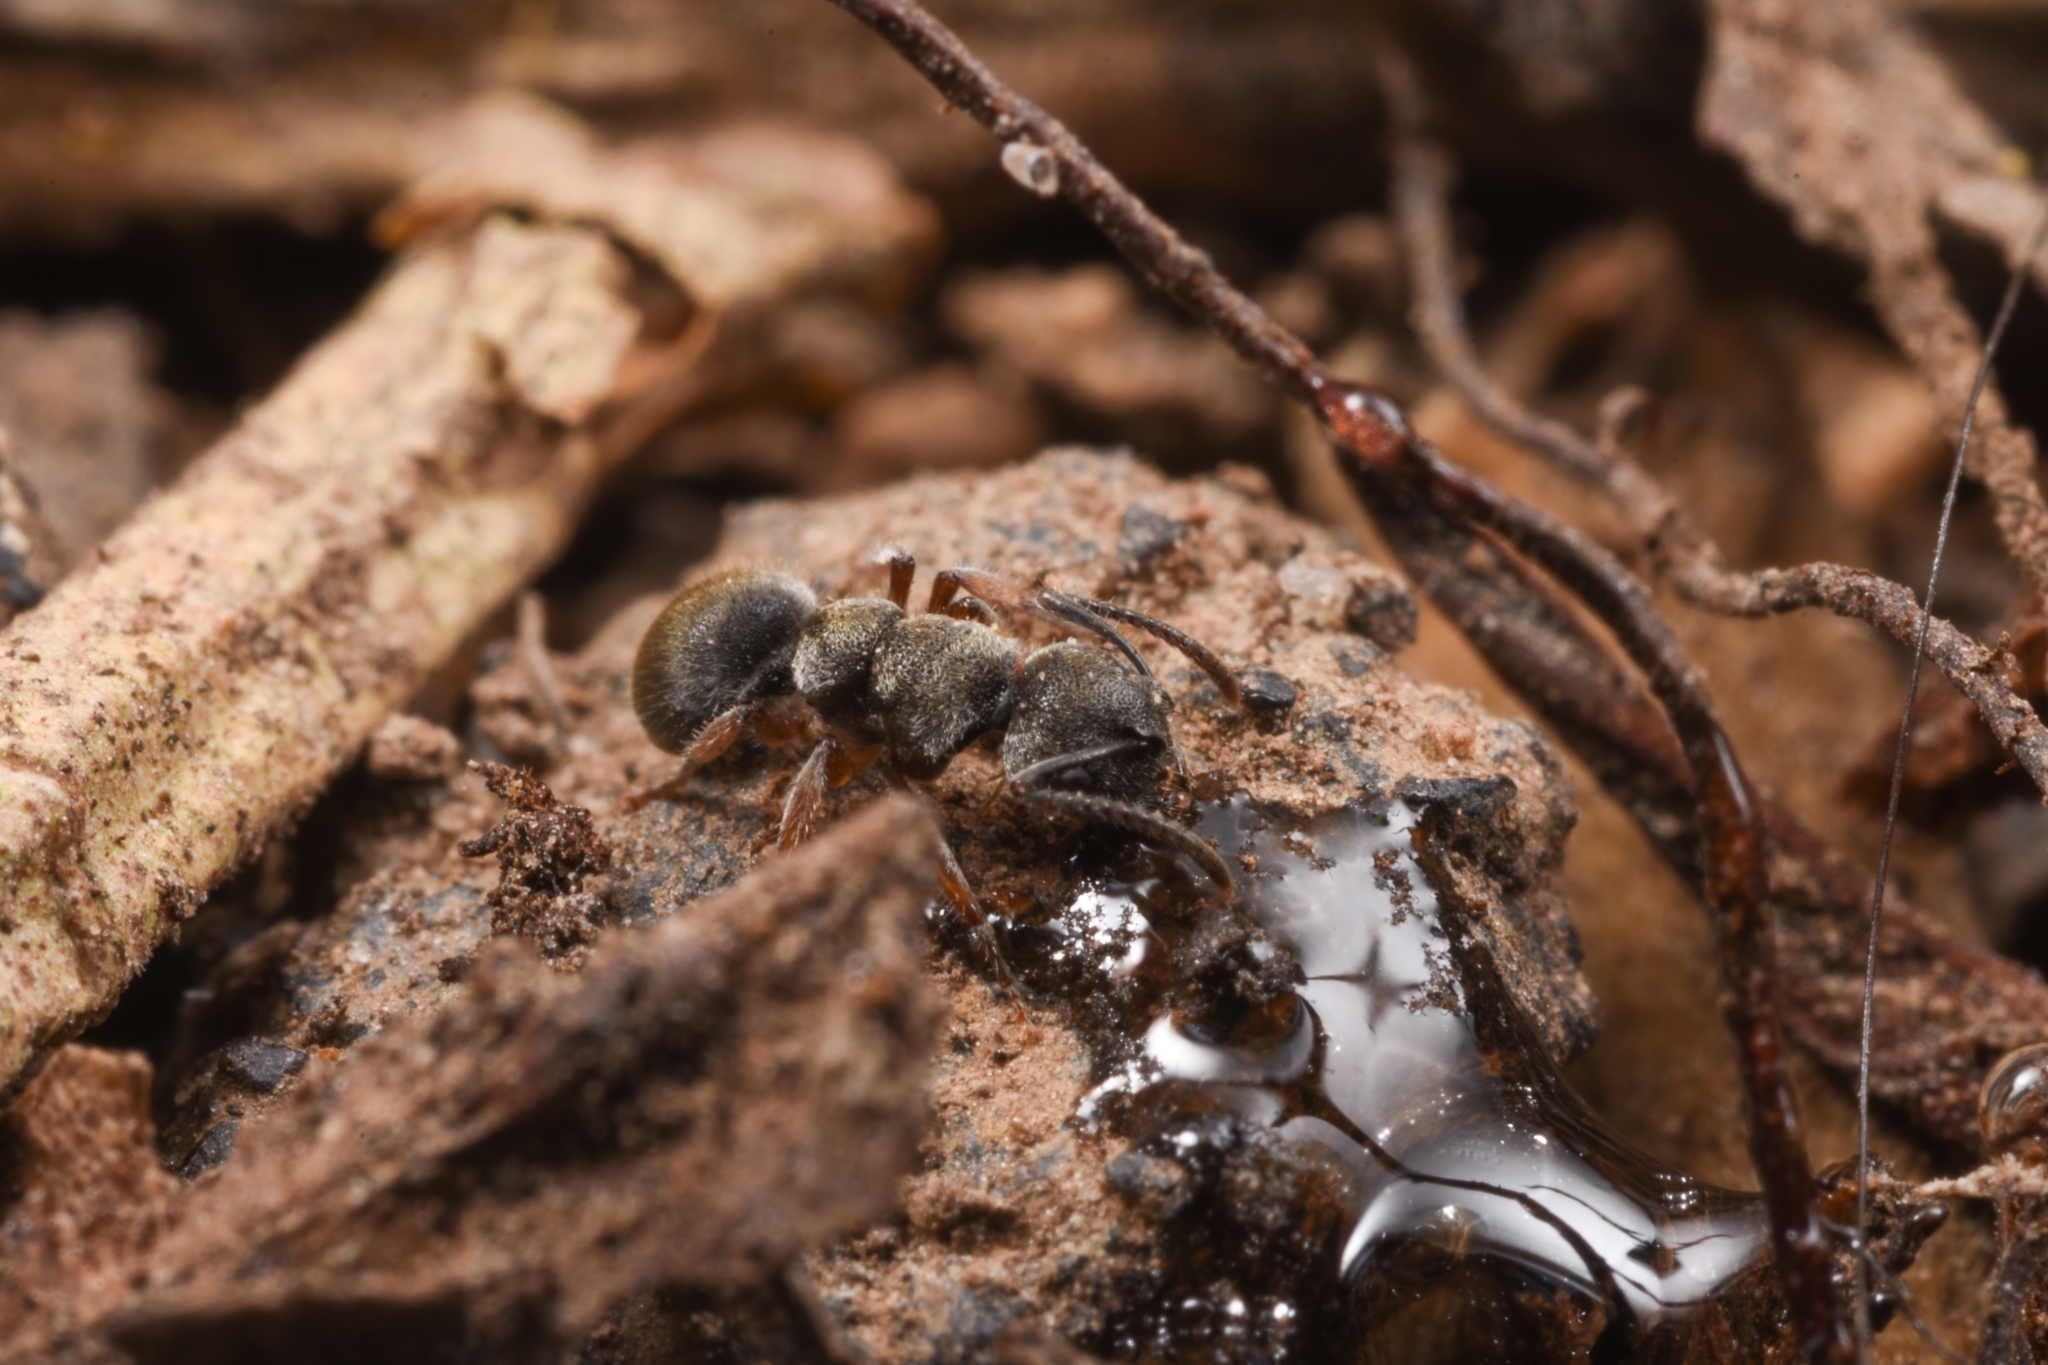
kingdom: Animalia
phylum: Arthropoda
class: Insecta
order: Hymenoptera
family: Formicidae
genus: Echinopla
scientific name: Echinopla australis
